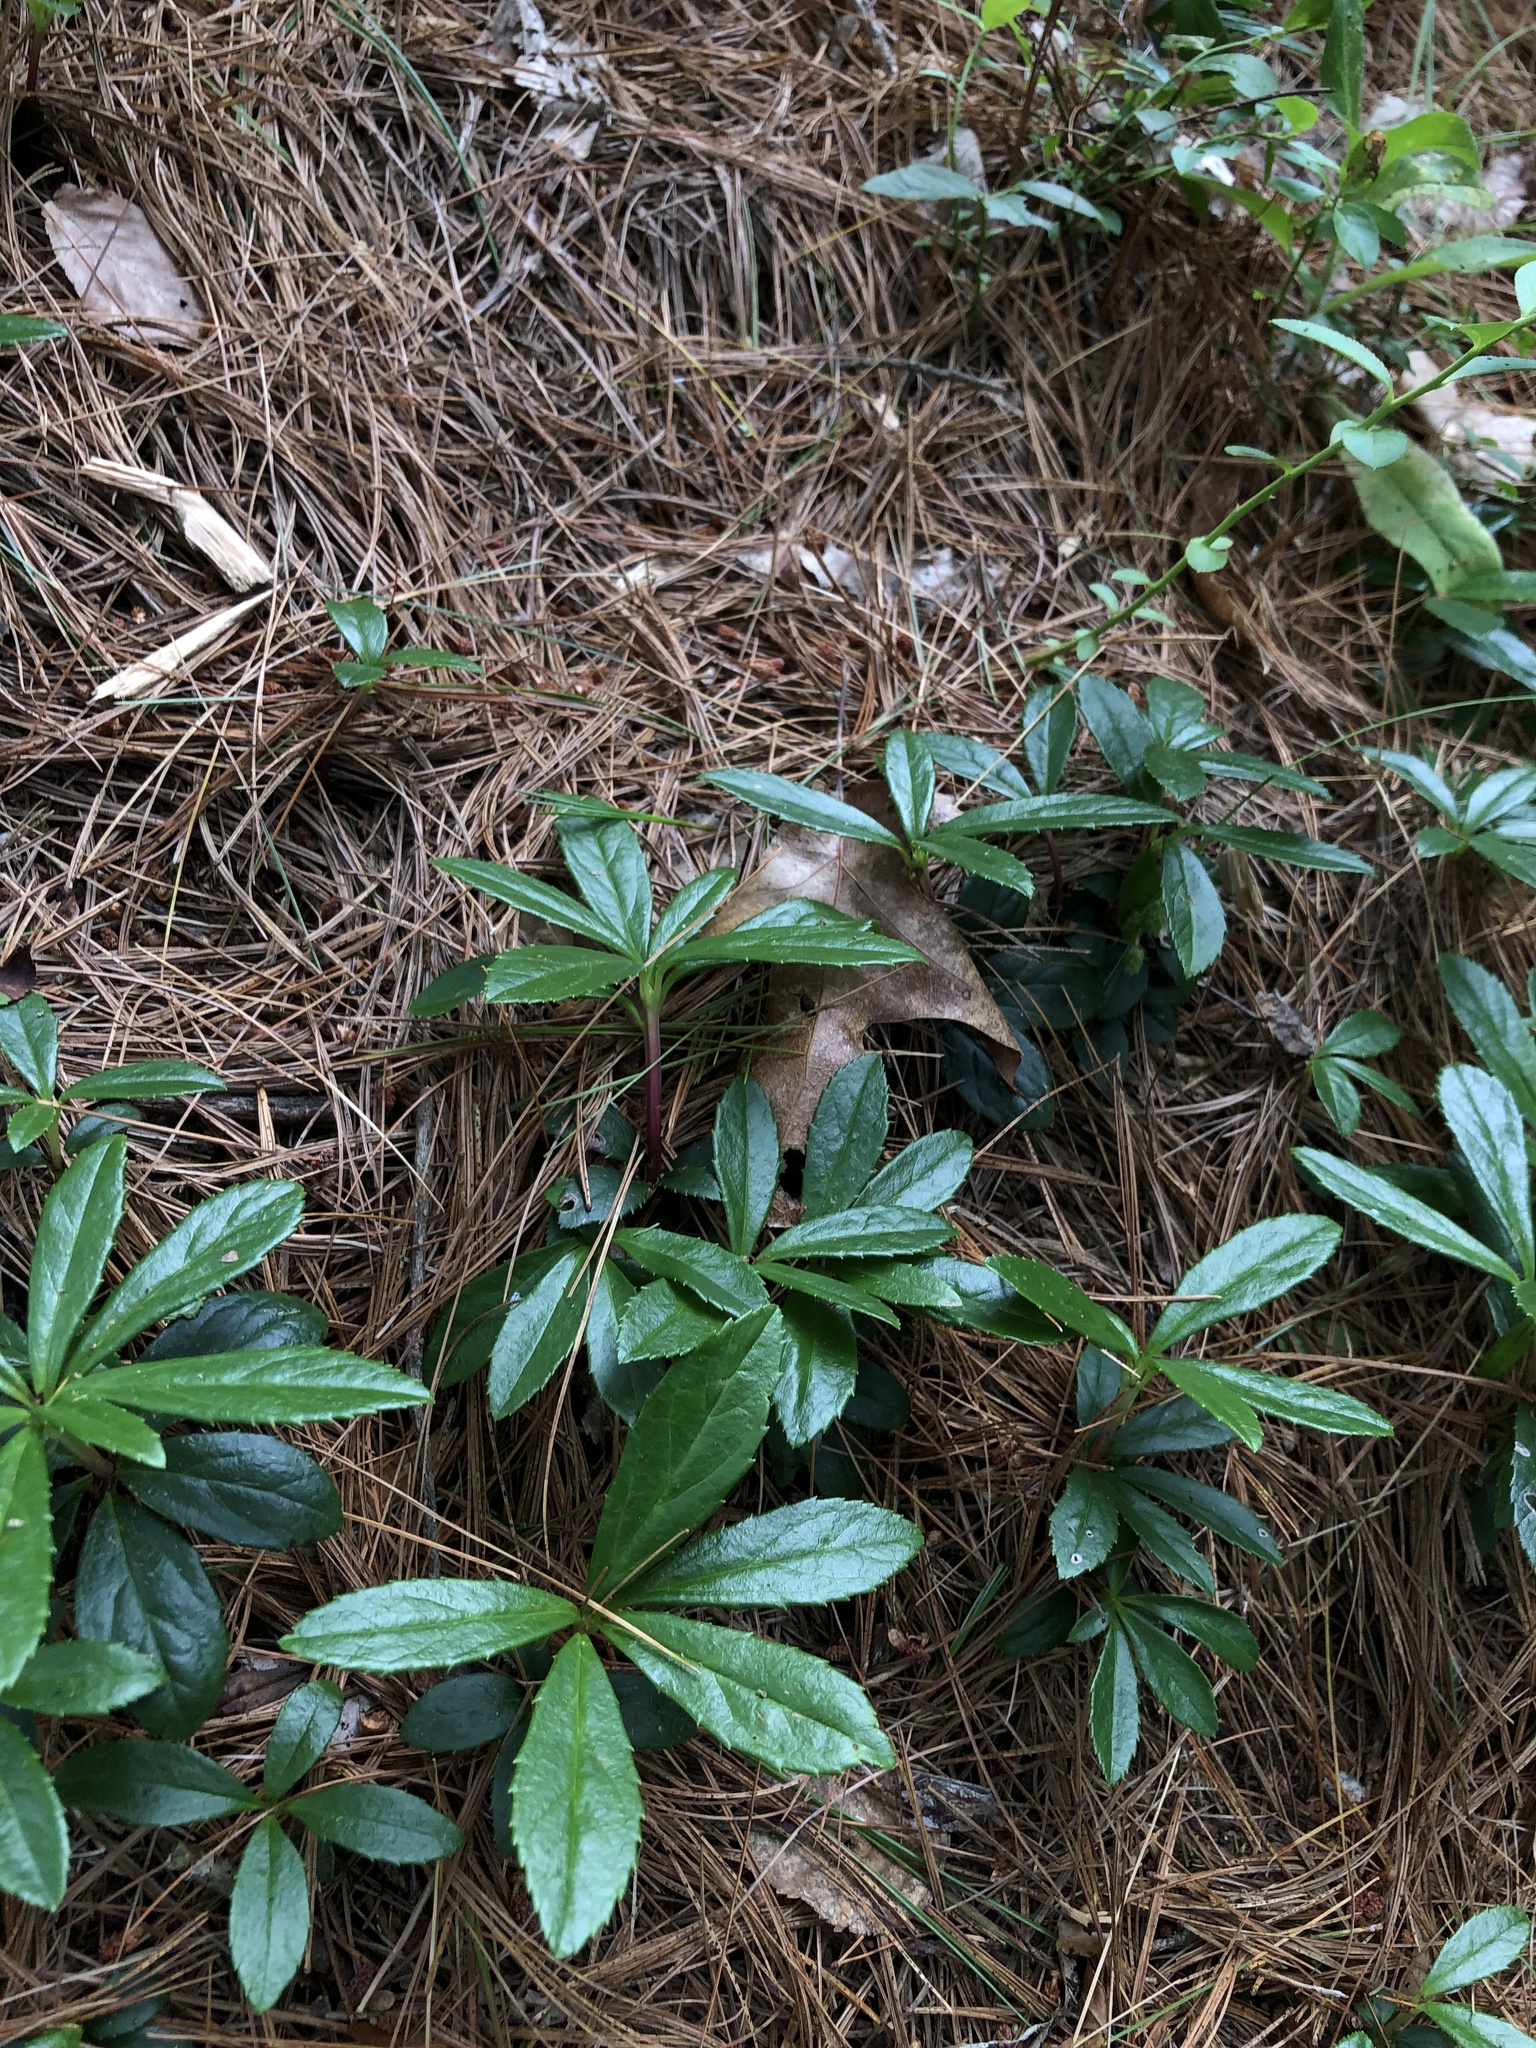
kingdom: Plantae
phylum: Tracheophyta
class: Magnoliopsida
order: Ericales
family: Ericaceae
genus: Chimaphila
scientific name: Chimaphila umbellata
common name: Pipsissewa
